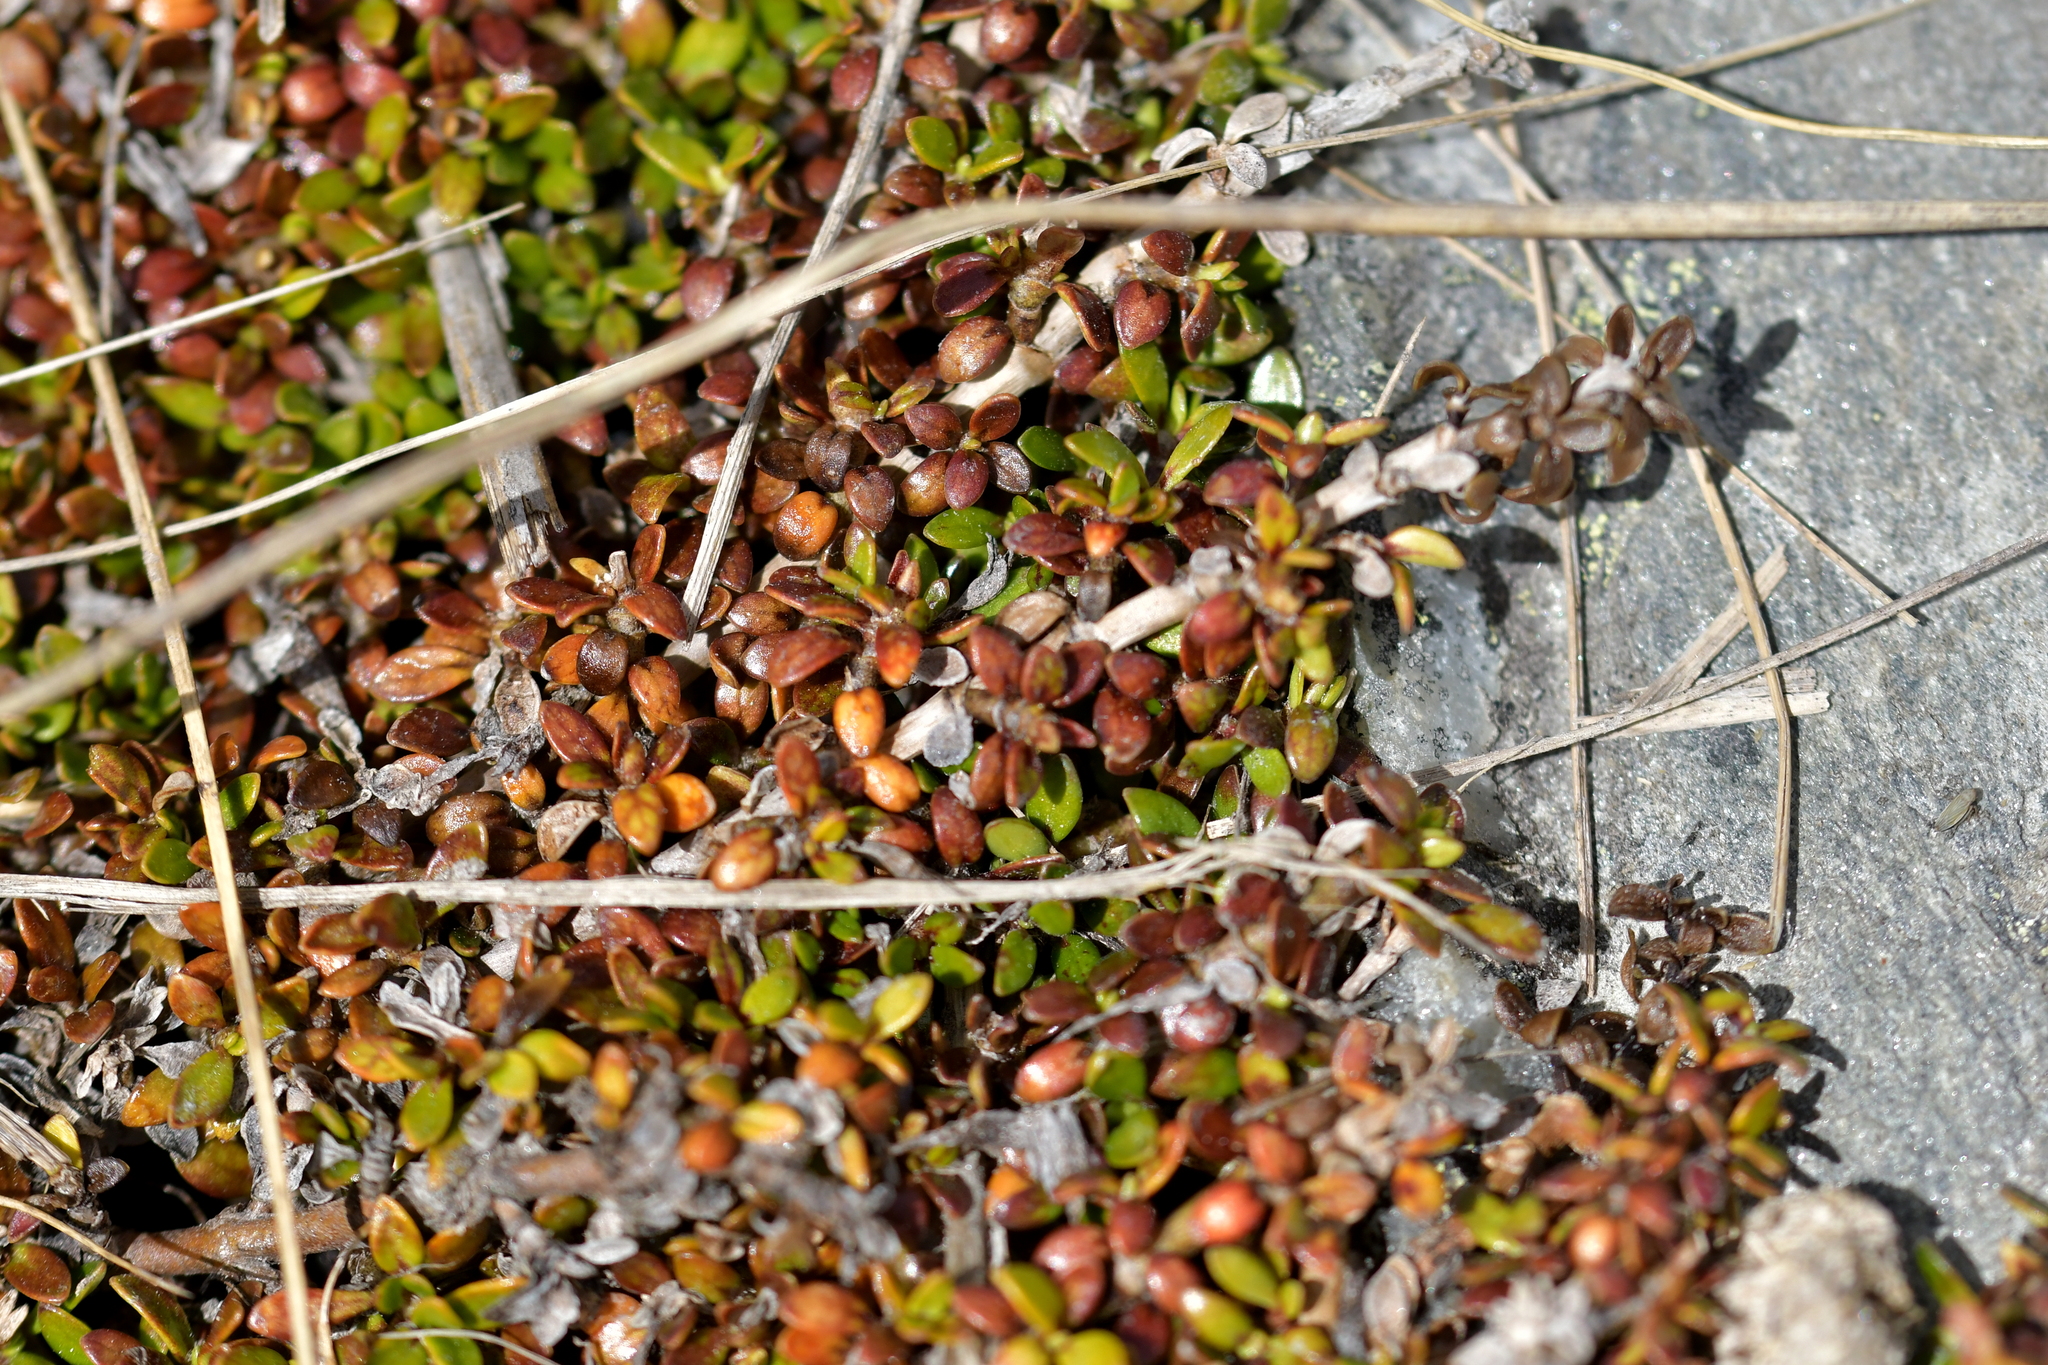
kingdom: Plantae
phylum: Tracheophyta
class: Magnoliopsida
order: Gentianales
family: Rubiaceae
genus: Coprosma
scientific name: Coprosma perpusilla
